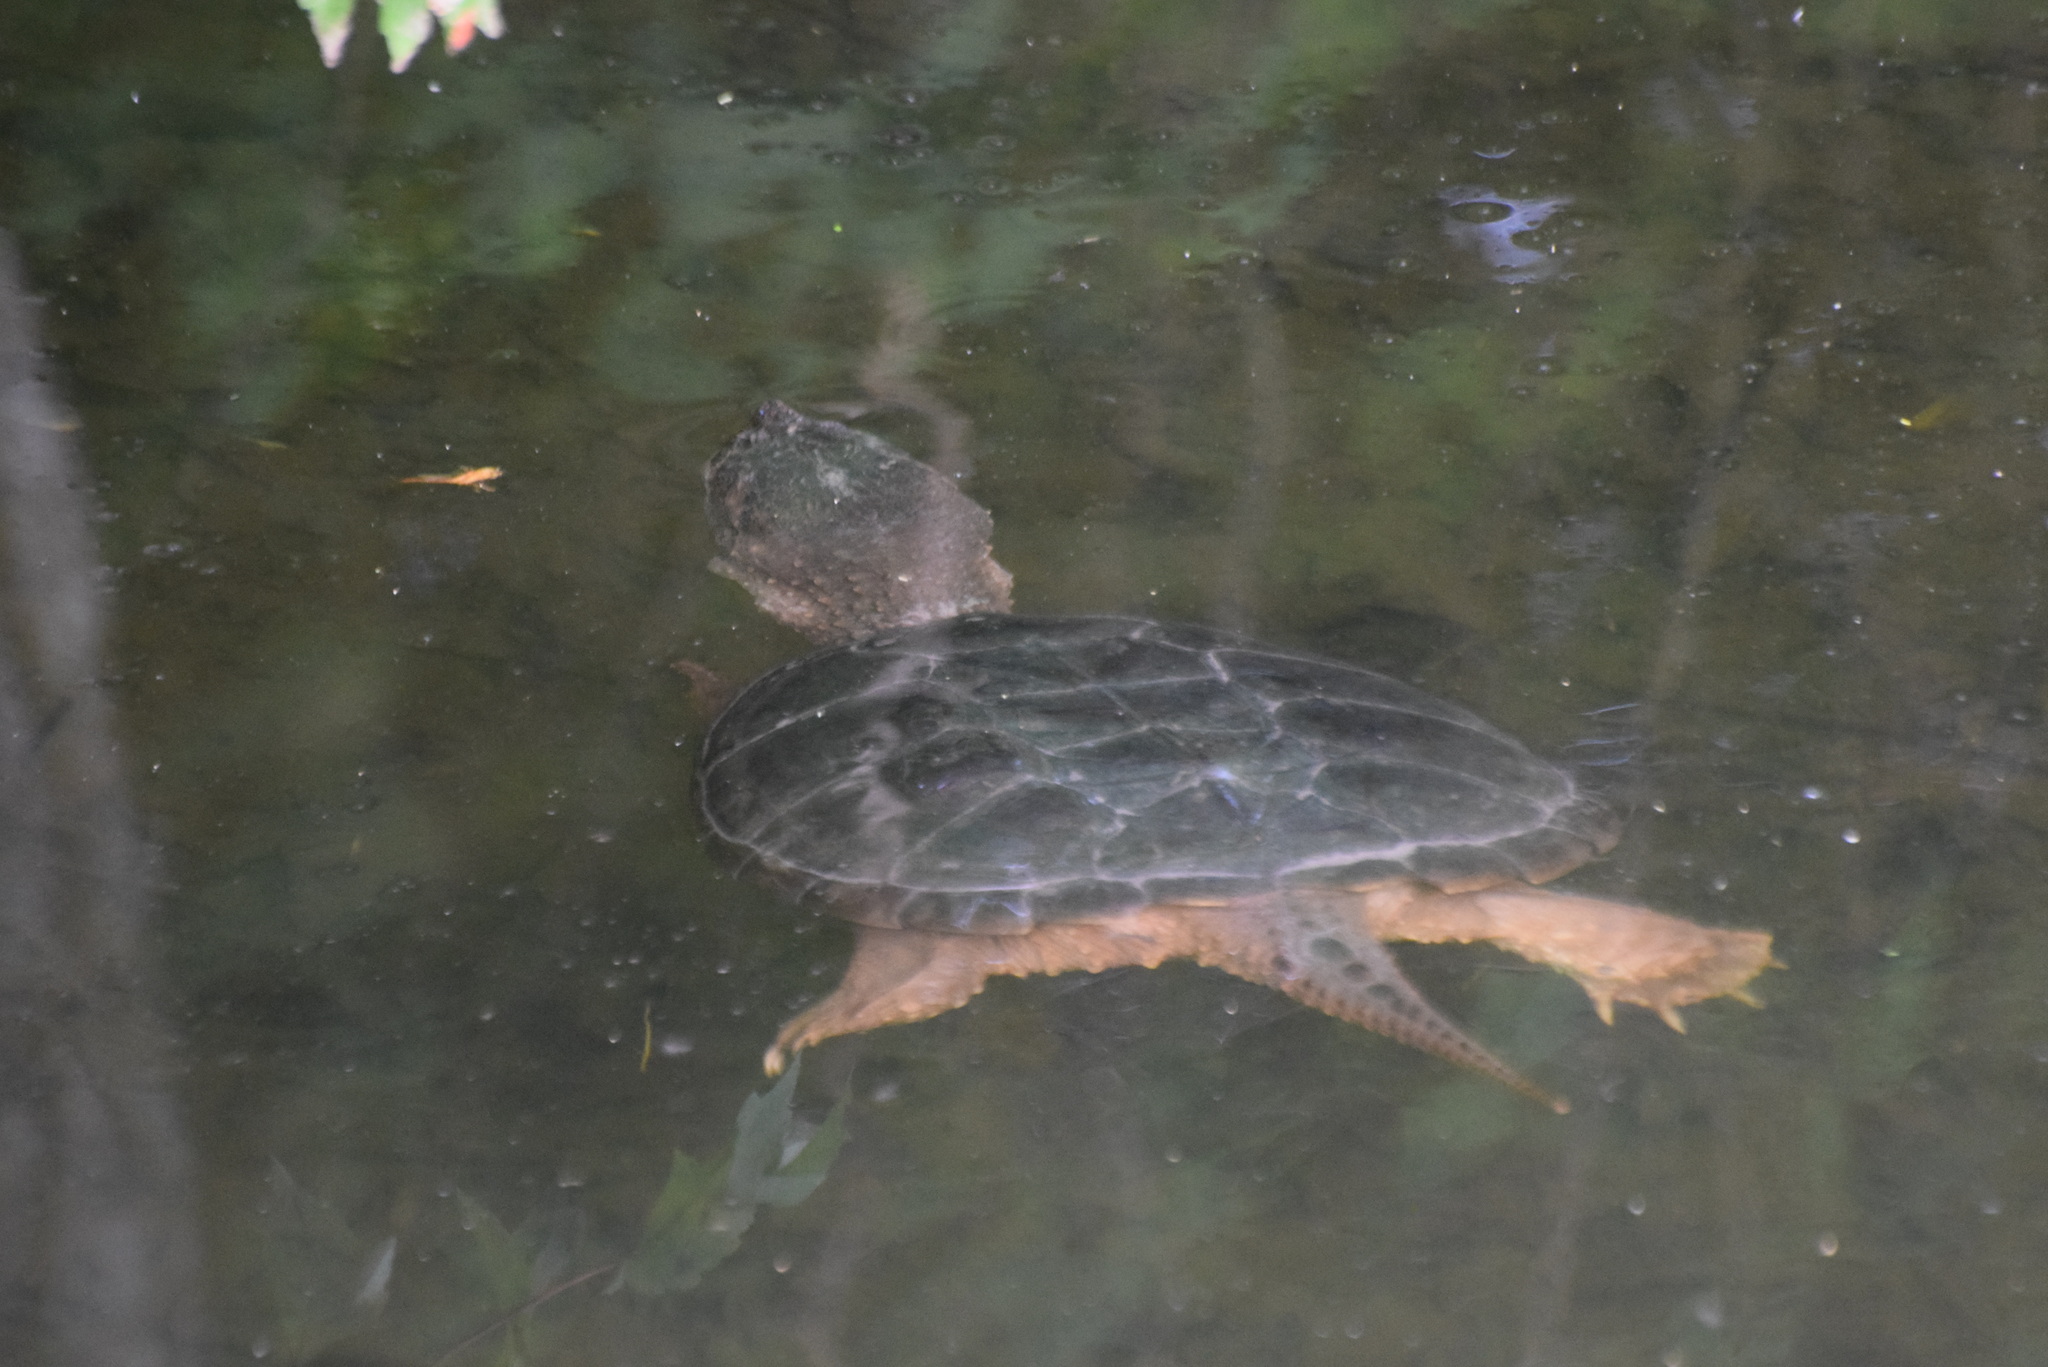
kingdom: Animalia
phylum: Chordata
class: Testudines
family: Chelydridae
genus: Chelydra
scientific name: Chelydra serpentina
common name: Common snapping turtle
